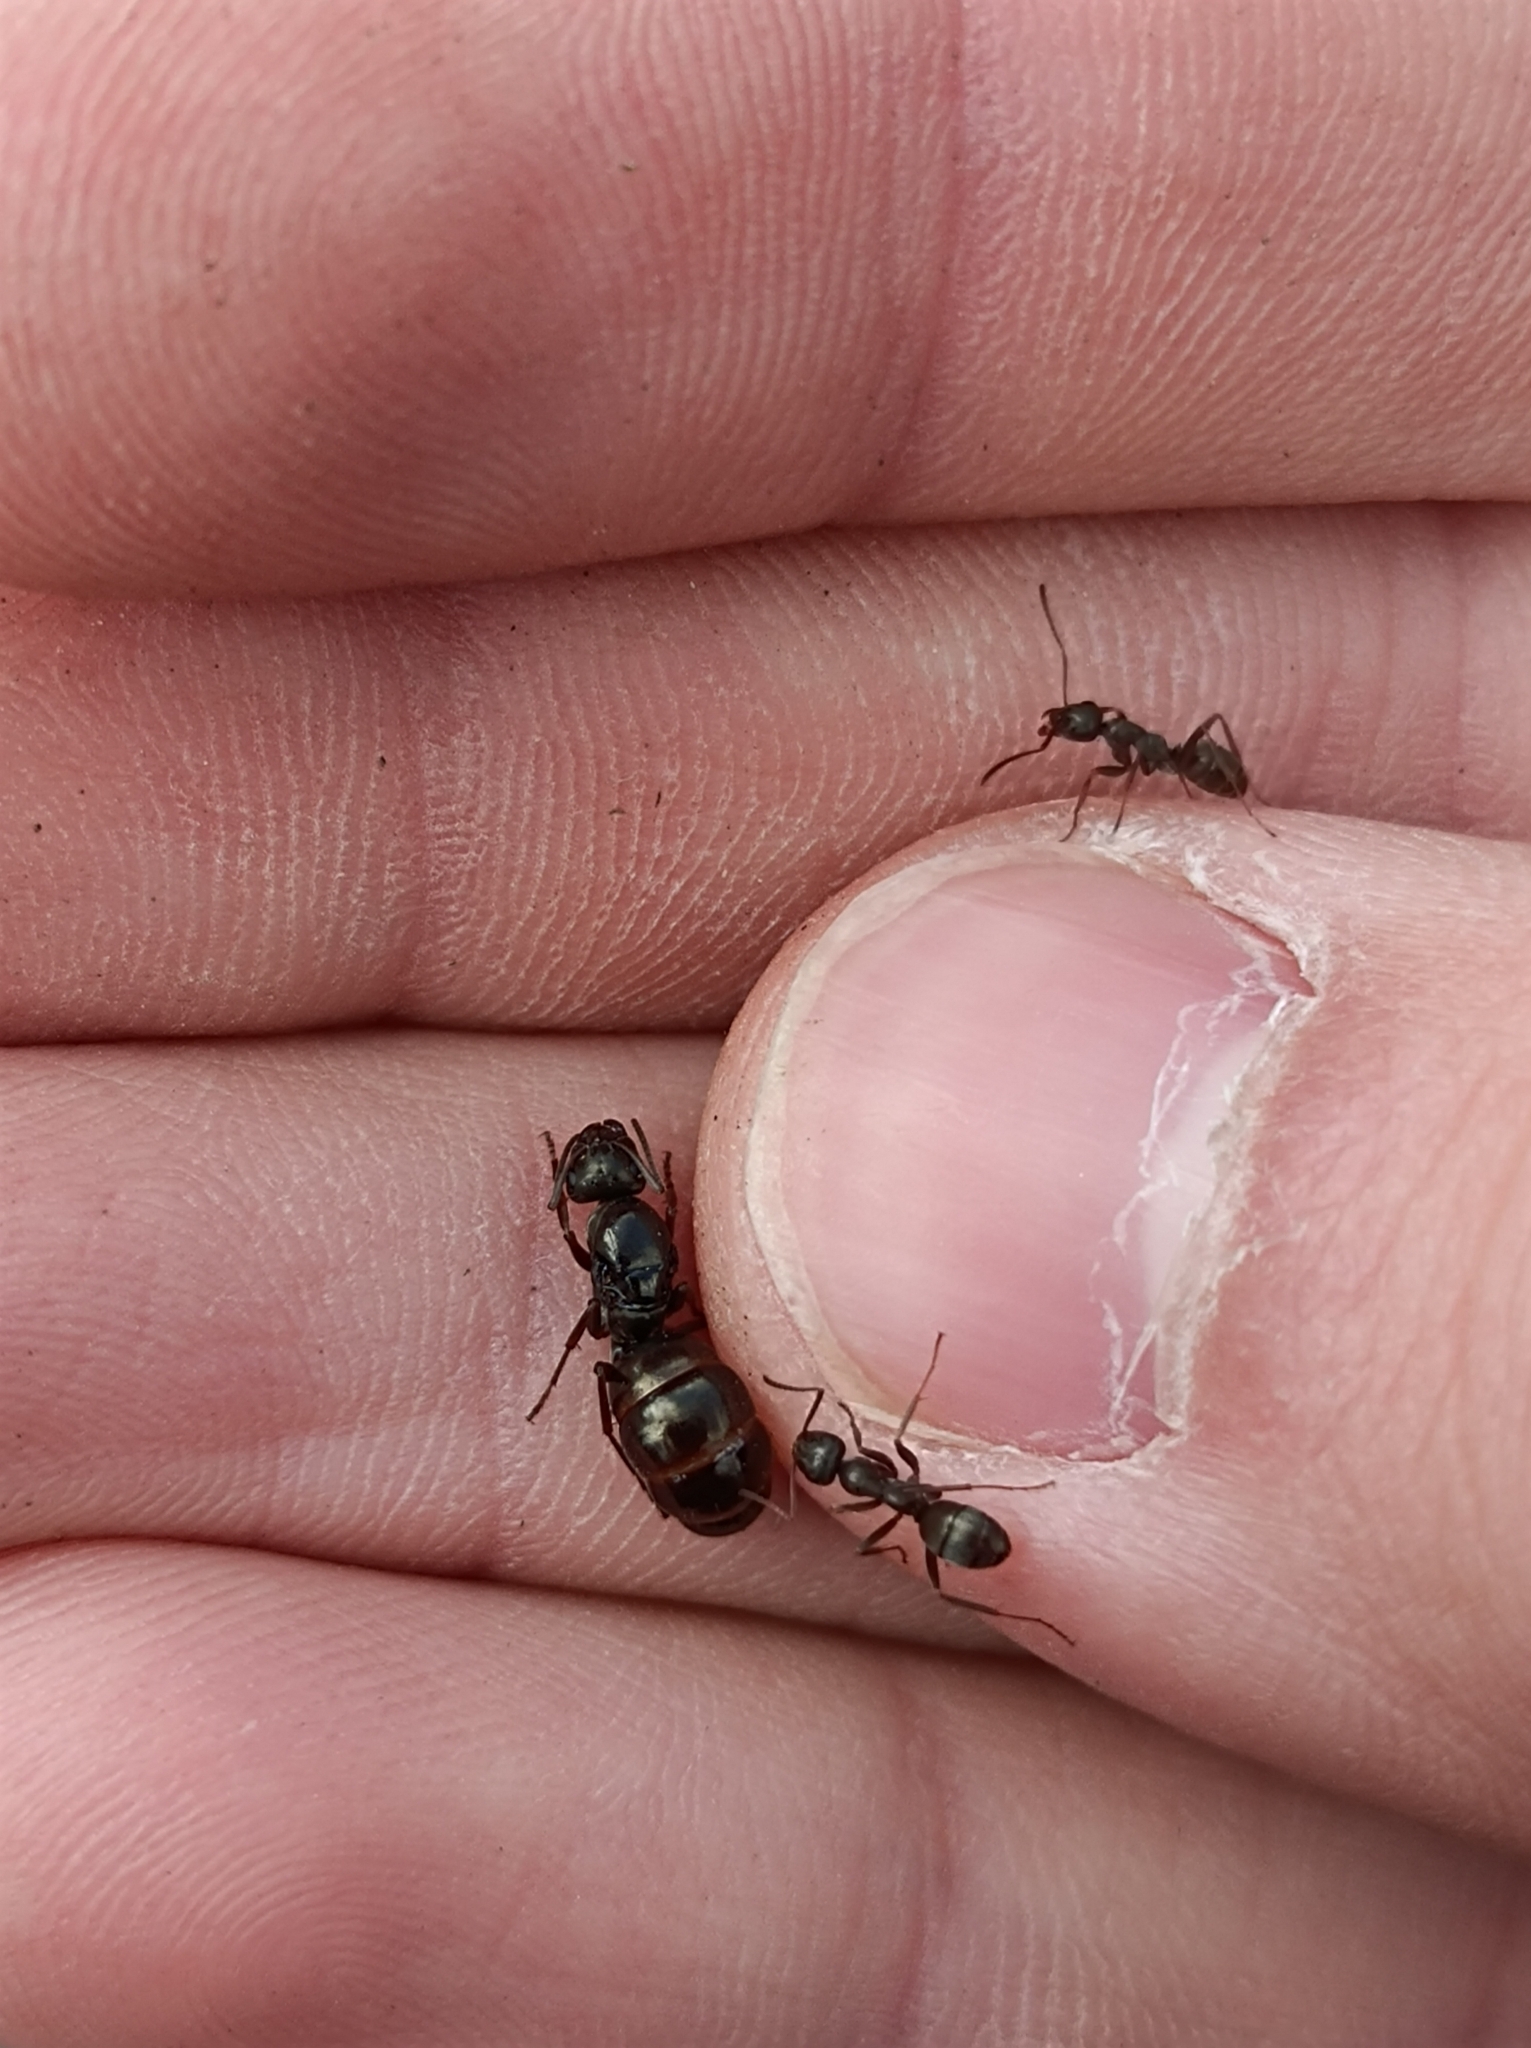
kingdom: Animalia
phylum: Arthropoda
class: Insecta
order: Hymenoptera
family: Formicidae
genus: Formica
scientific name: Formica fusca
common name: Silky ant
